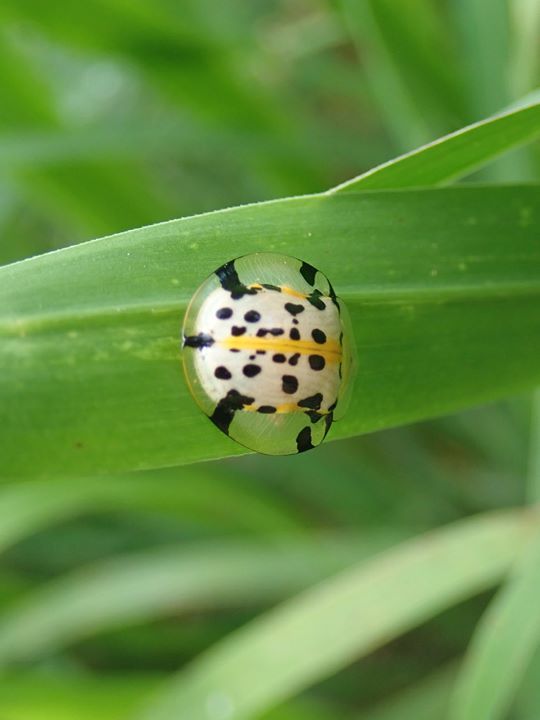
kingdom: Animalia
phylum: Arthropoda
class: Insecta
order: Coleoptera
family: Chrysomelidae
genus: Aspidimorpha
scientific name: Aspidimorpha miliaris
